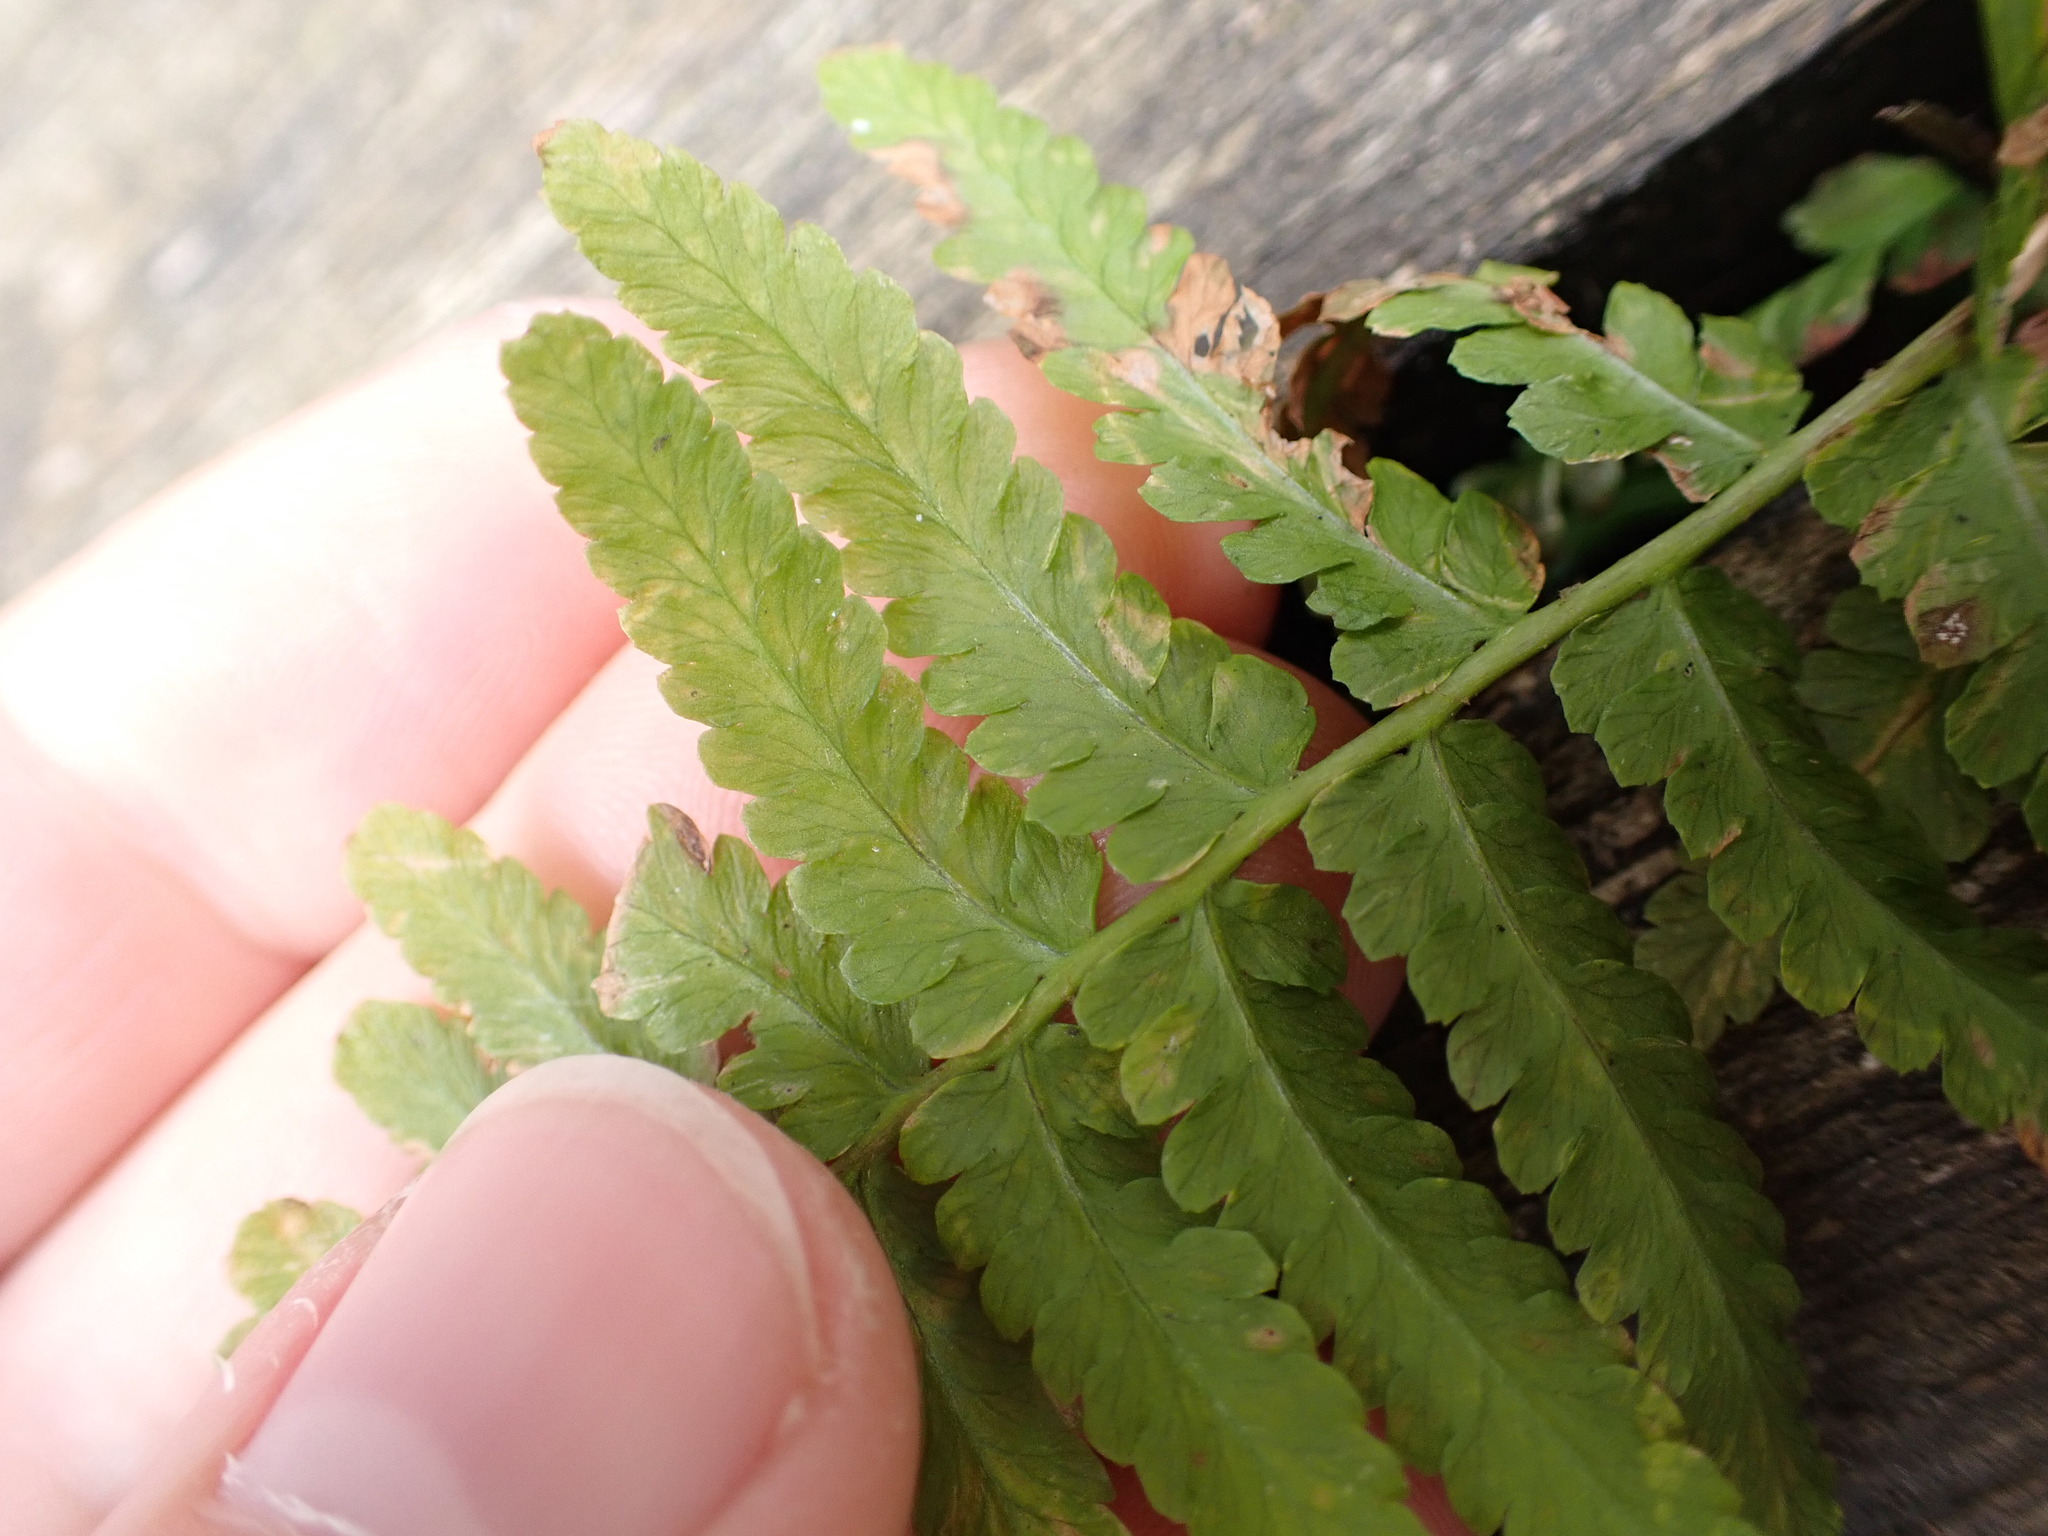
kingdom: Plantae
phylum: Tracheophyta
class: Polypodiopsida
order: Polypodiales
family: Dryopteridaceae
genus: Dryopteris
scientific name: Dryopteris filix-mas
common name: Male fern
